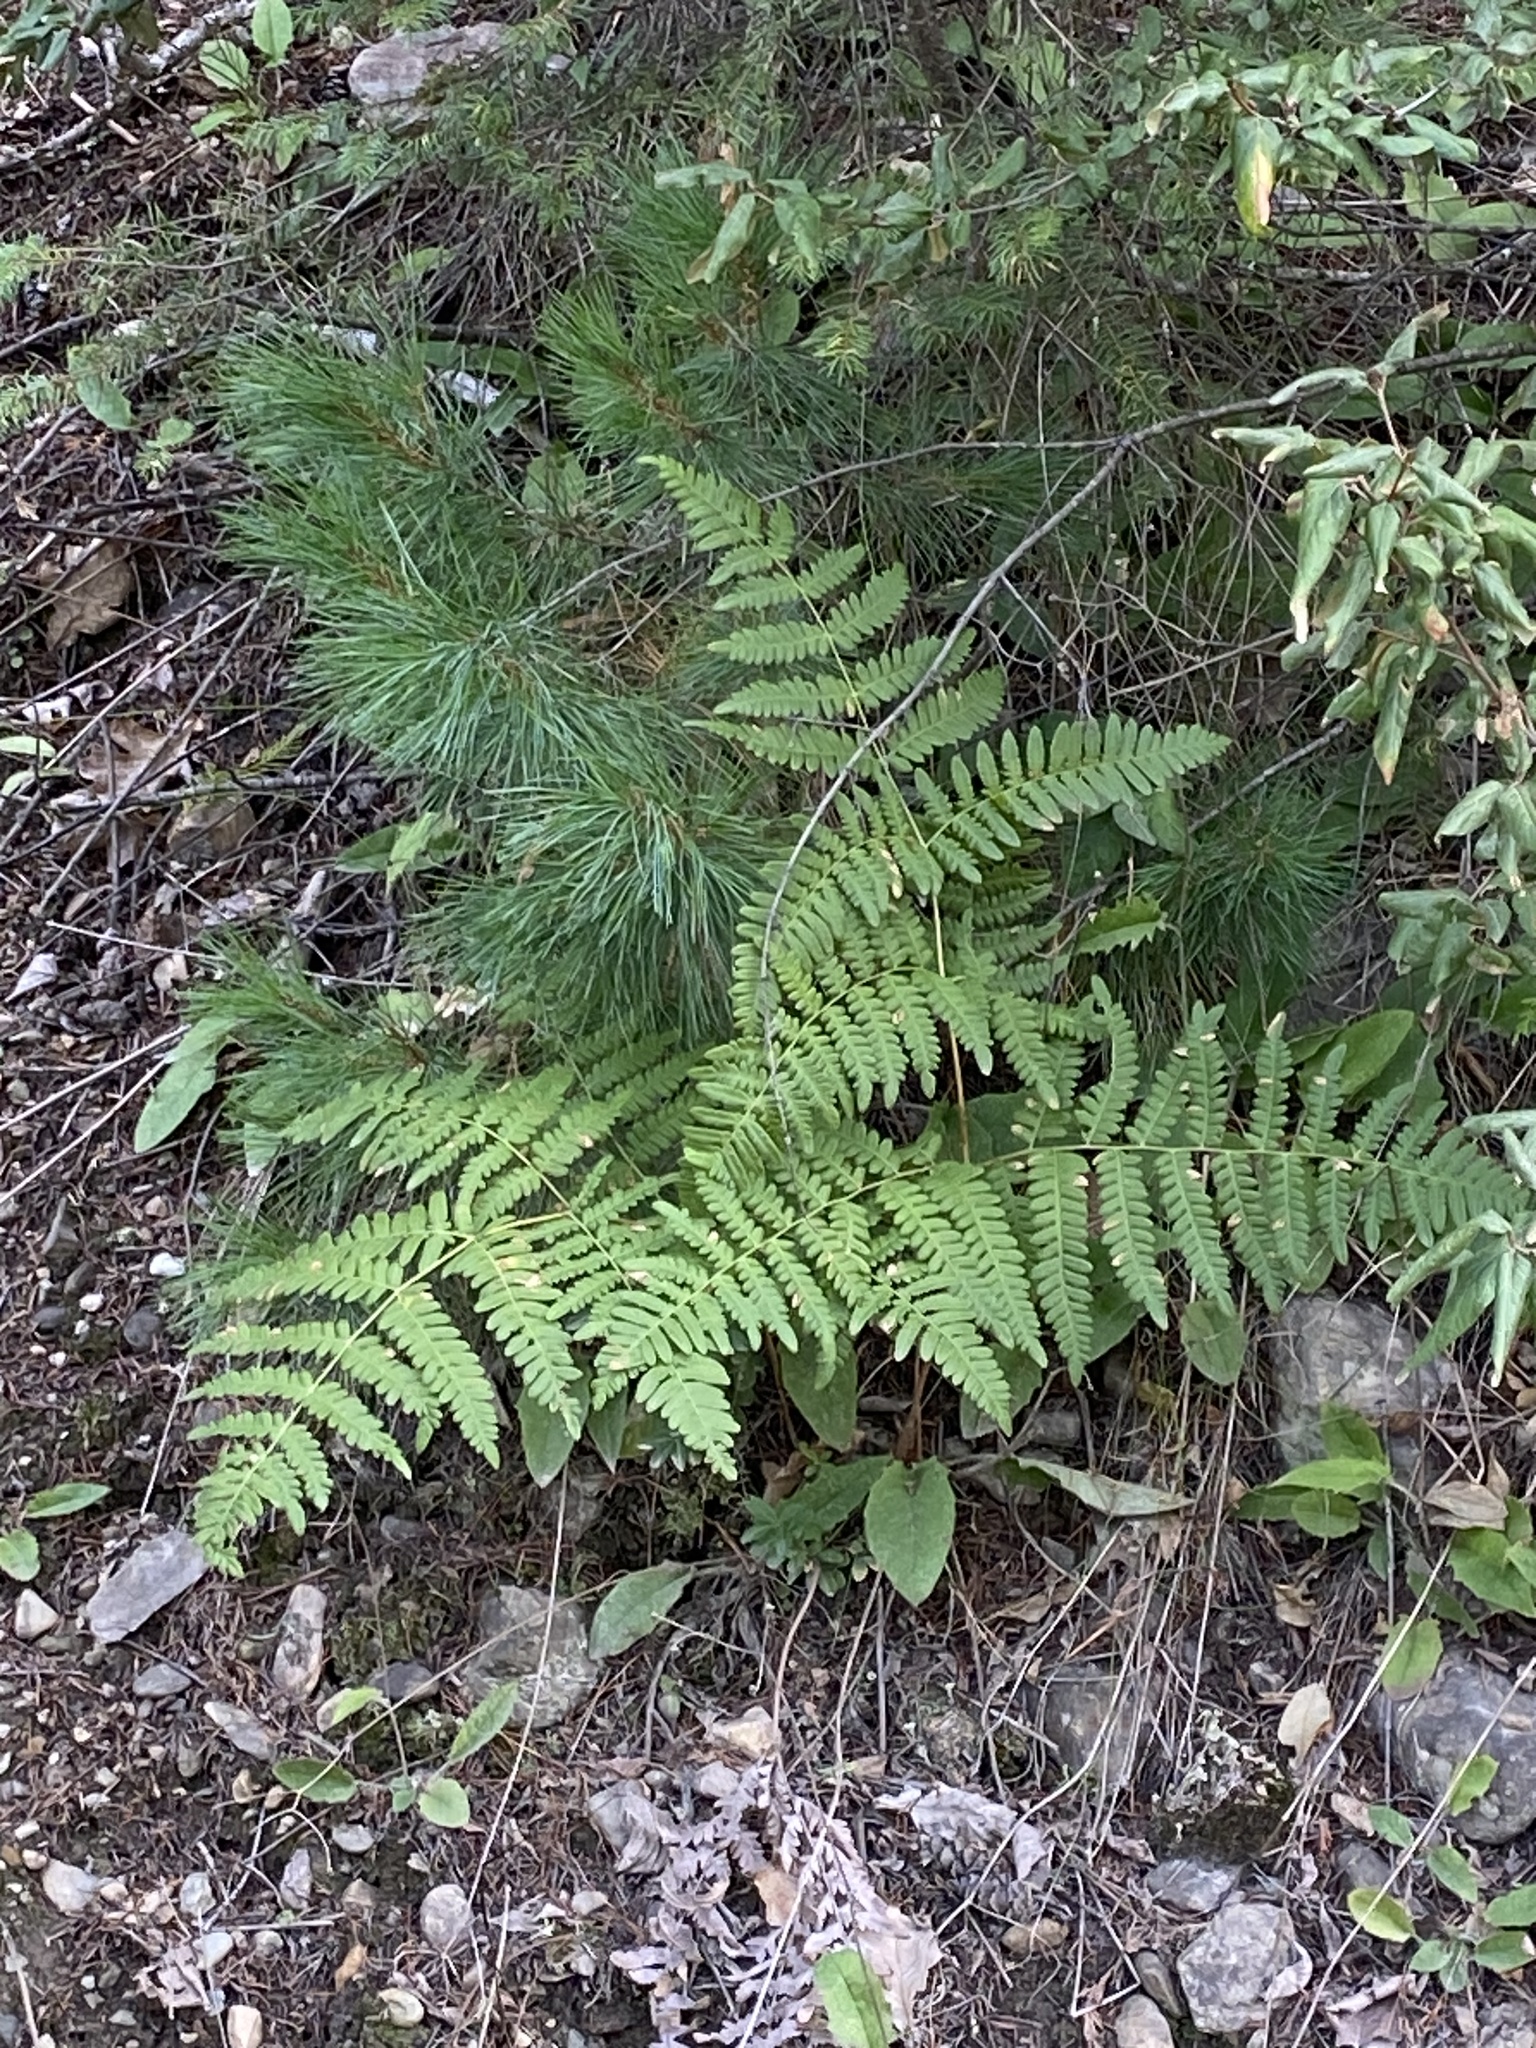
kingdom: Plantae
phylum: Tracheophyta
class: Polypodiopsida
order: Polypodiales
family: Dennstaedtiaceae
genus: Pteridium
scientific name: Pteridium aquilinum
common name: Bracken
